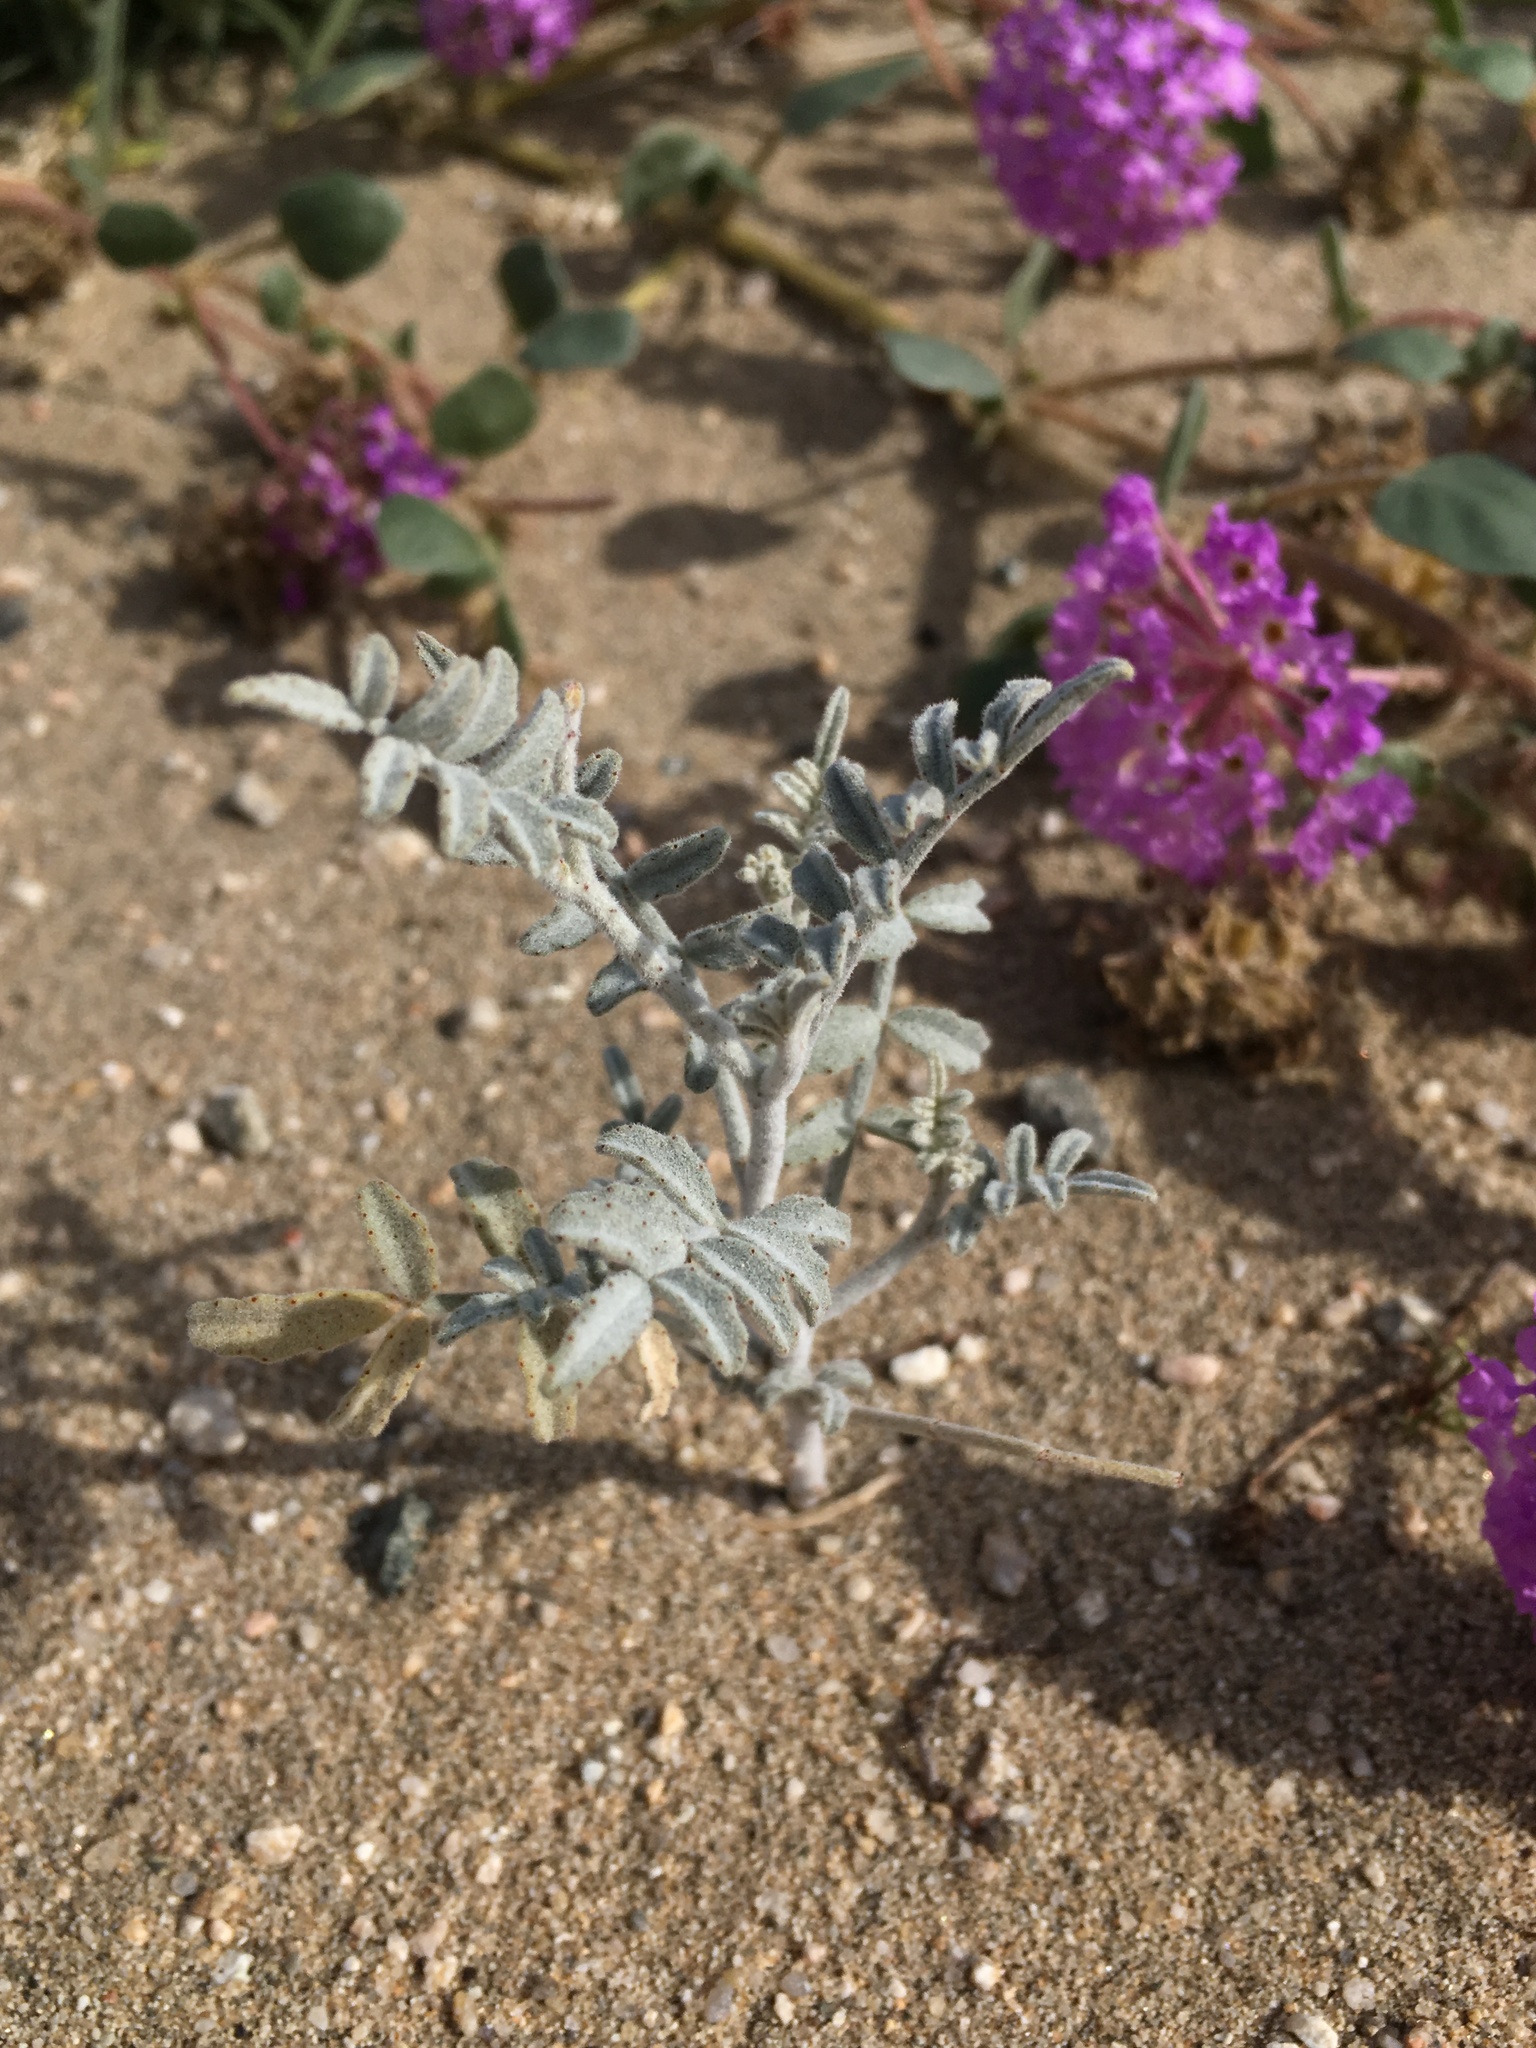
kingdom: Plantae
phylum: Tracheophyta
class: Magnoliopsida
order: Fabales
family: Fabaceae
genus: Psorothamnus
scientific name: Psorothamnus emoryi
